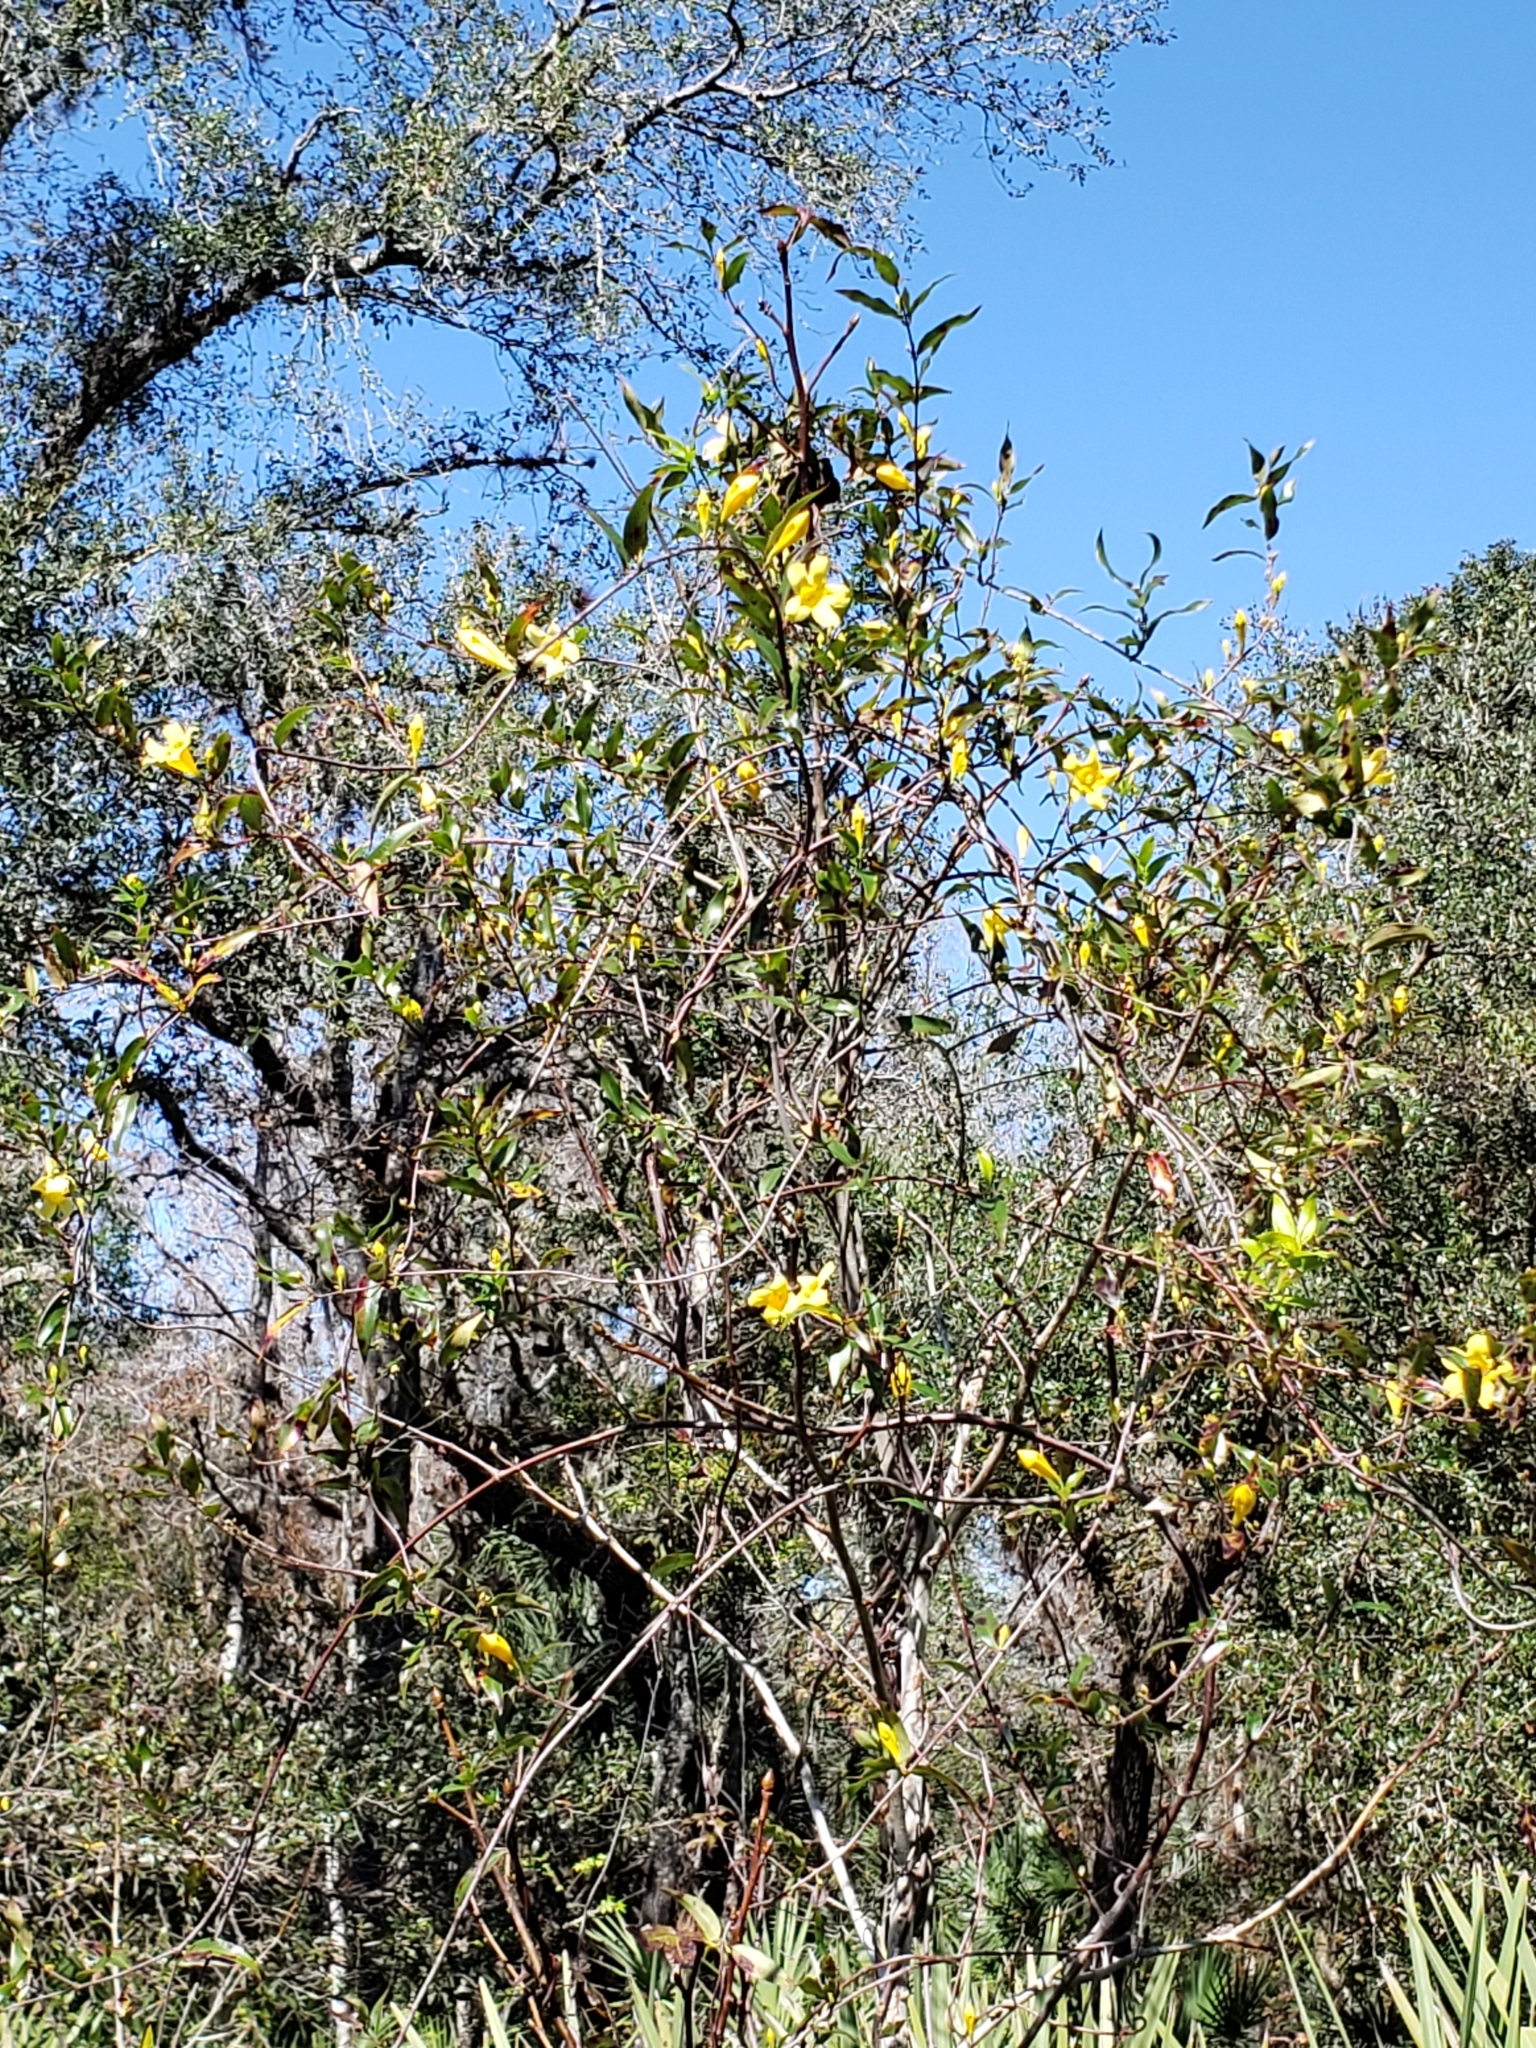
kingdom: Plantae
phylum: Tracheophyta
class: Magnoliopsida
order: Gentianales
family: Gelsemiaceae
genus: Gelsemium
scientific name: Gelsemium sempervirens
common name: Carolina-jasmine
